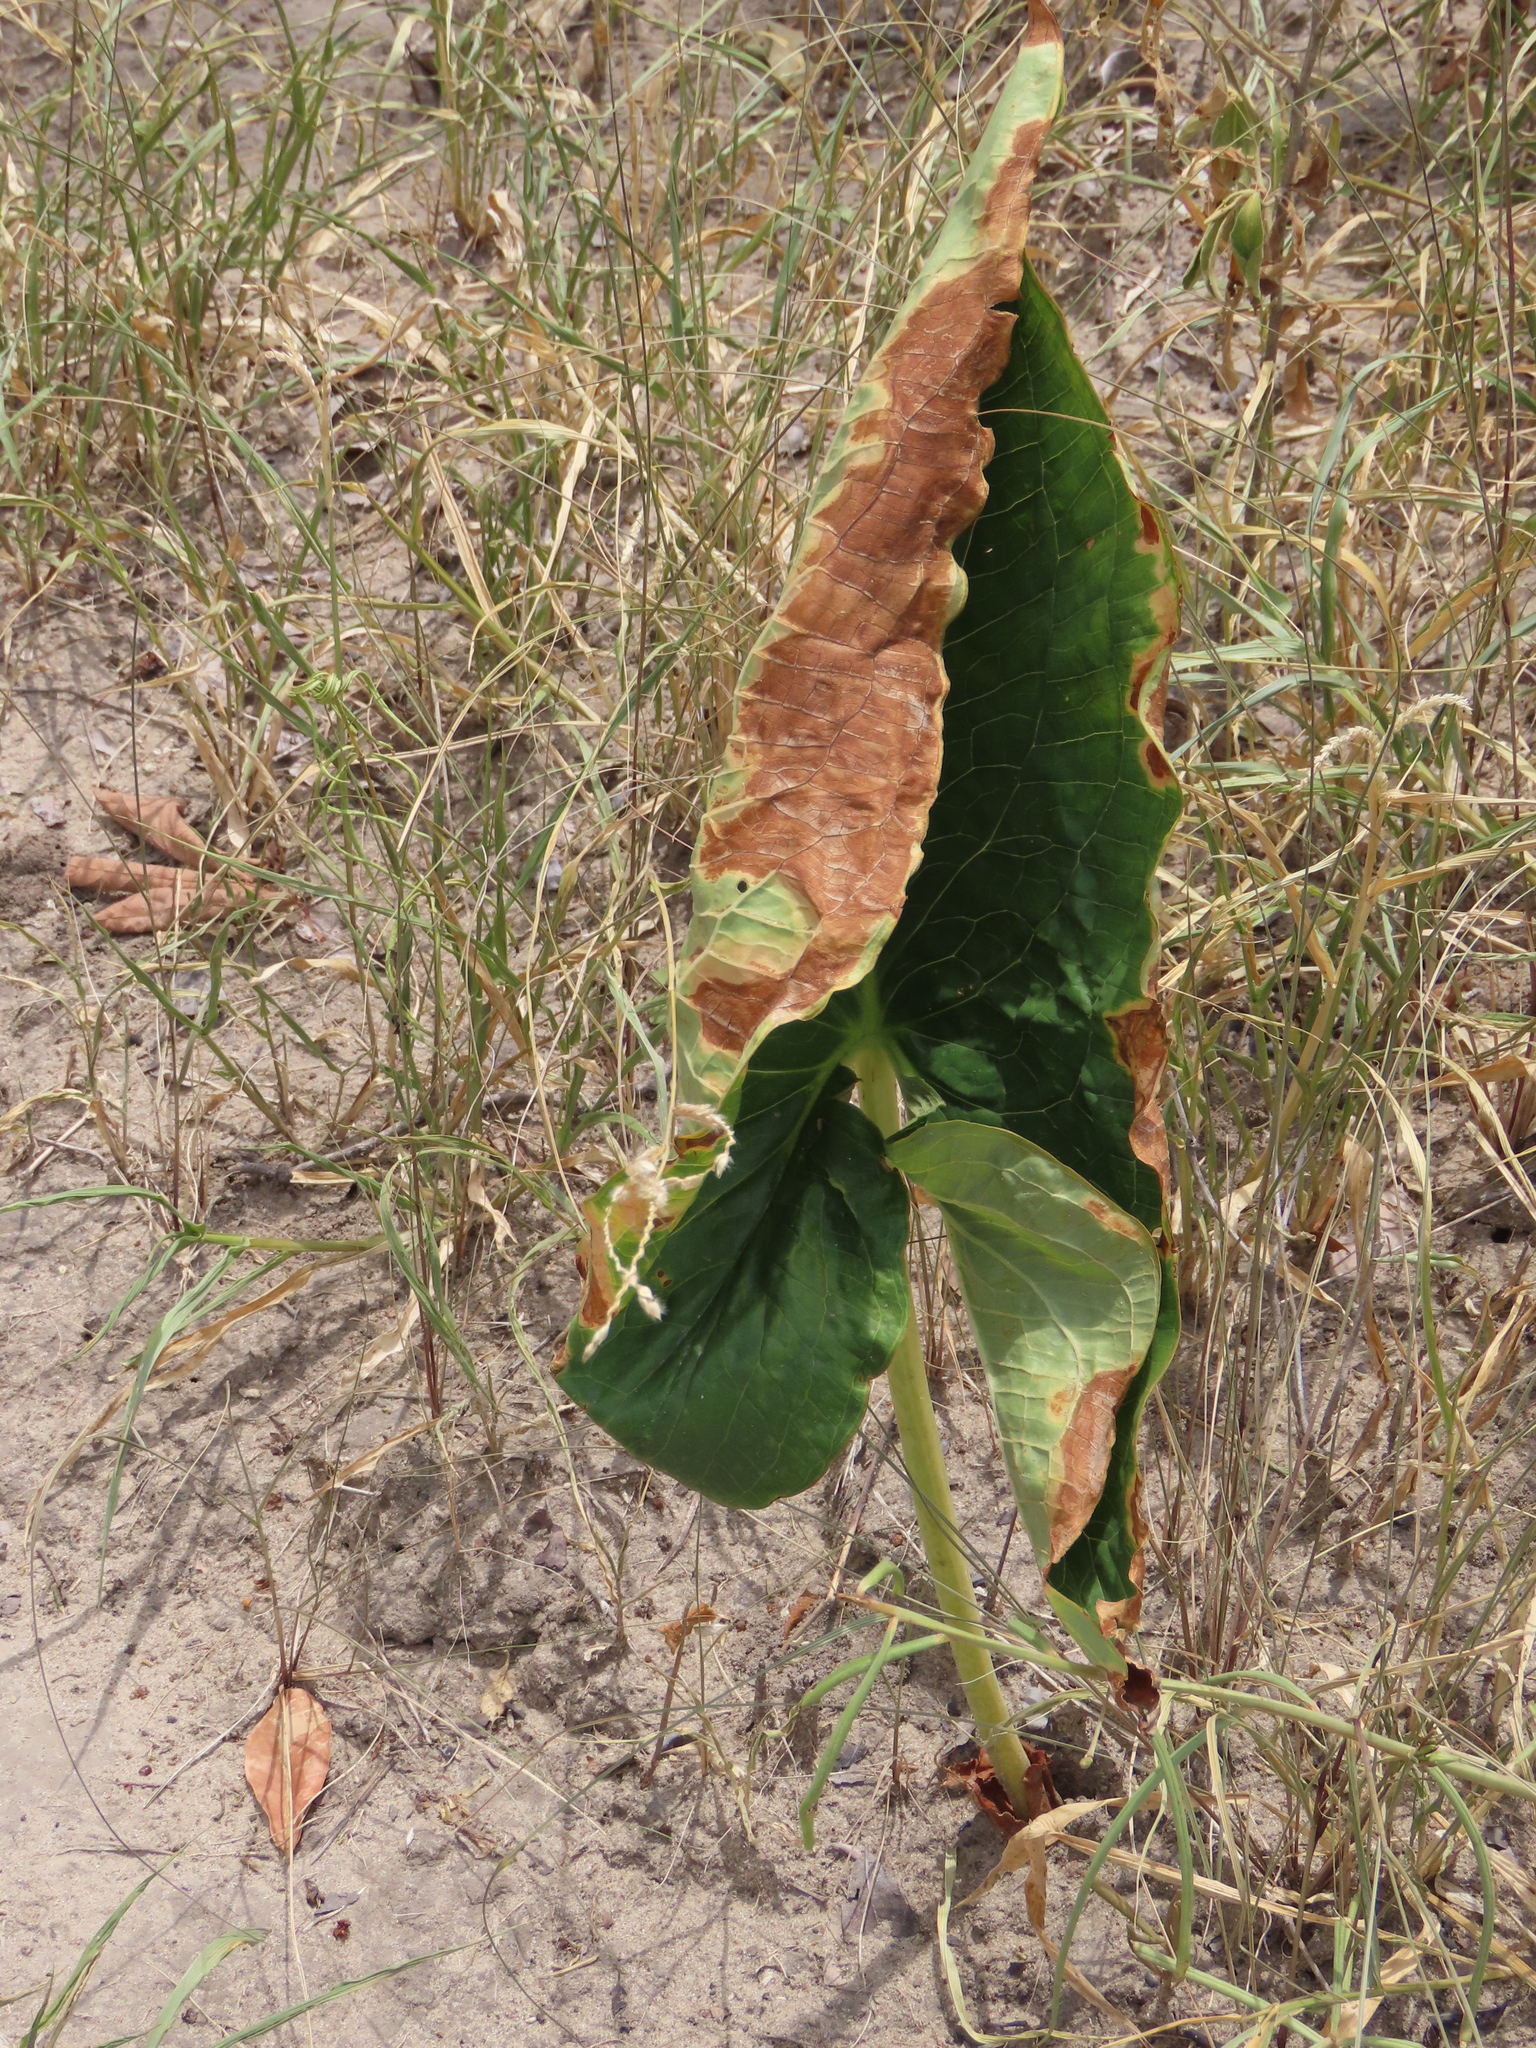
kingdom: Plantae
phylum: Tracheophyta
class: Liliopsida
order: Alismatales
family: Araceae
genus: Stylochaeton
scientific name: Stylochaeton puberulum
